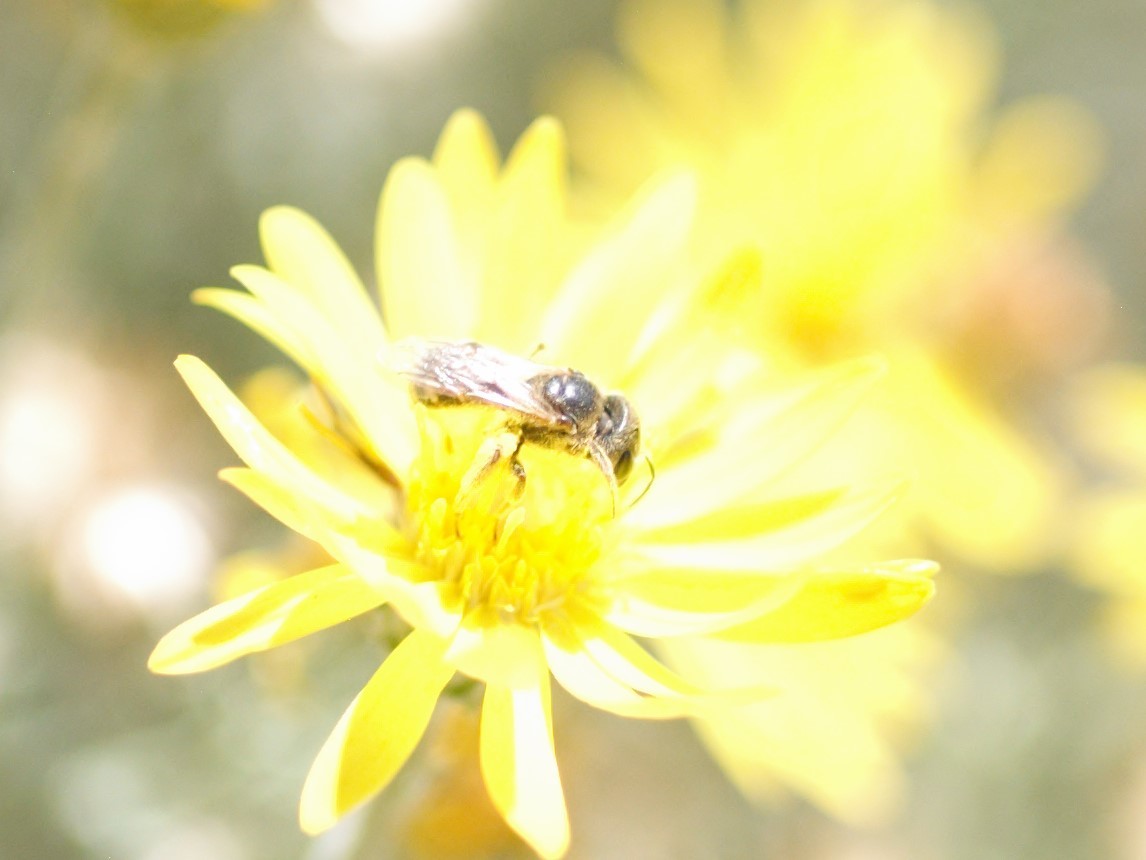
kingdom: Animalia
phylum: Arthropoda
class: Insecta
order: Hymenoptera
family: Halictidae
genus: Halictus
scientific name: Halictus ligatus
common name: Ligated furrow bee
